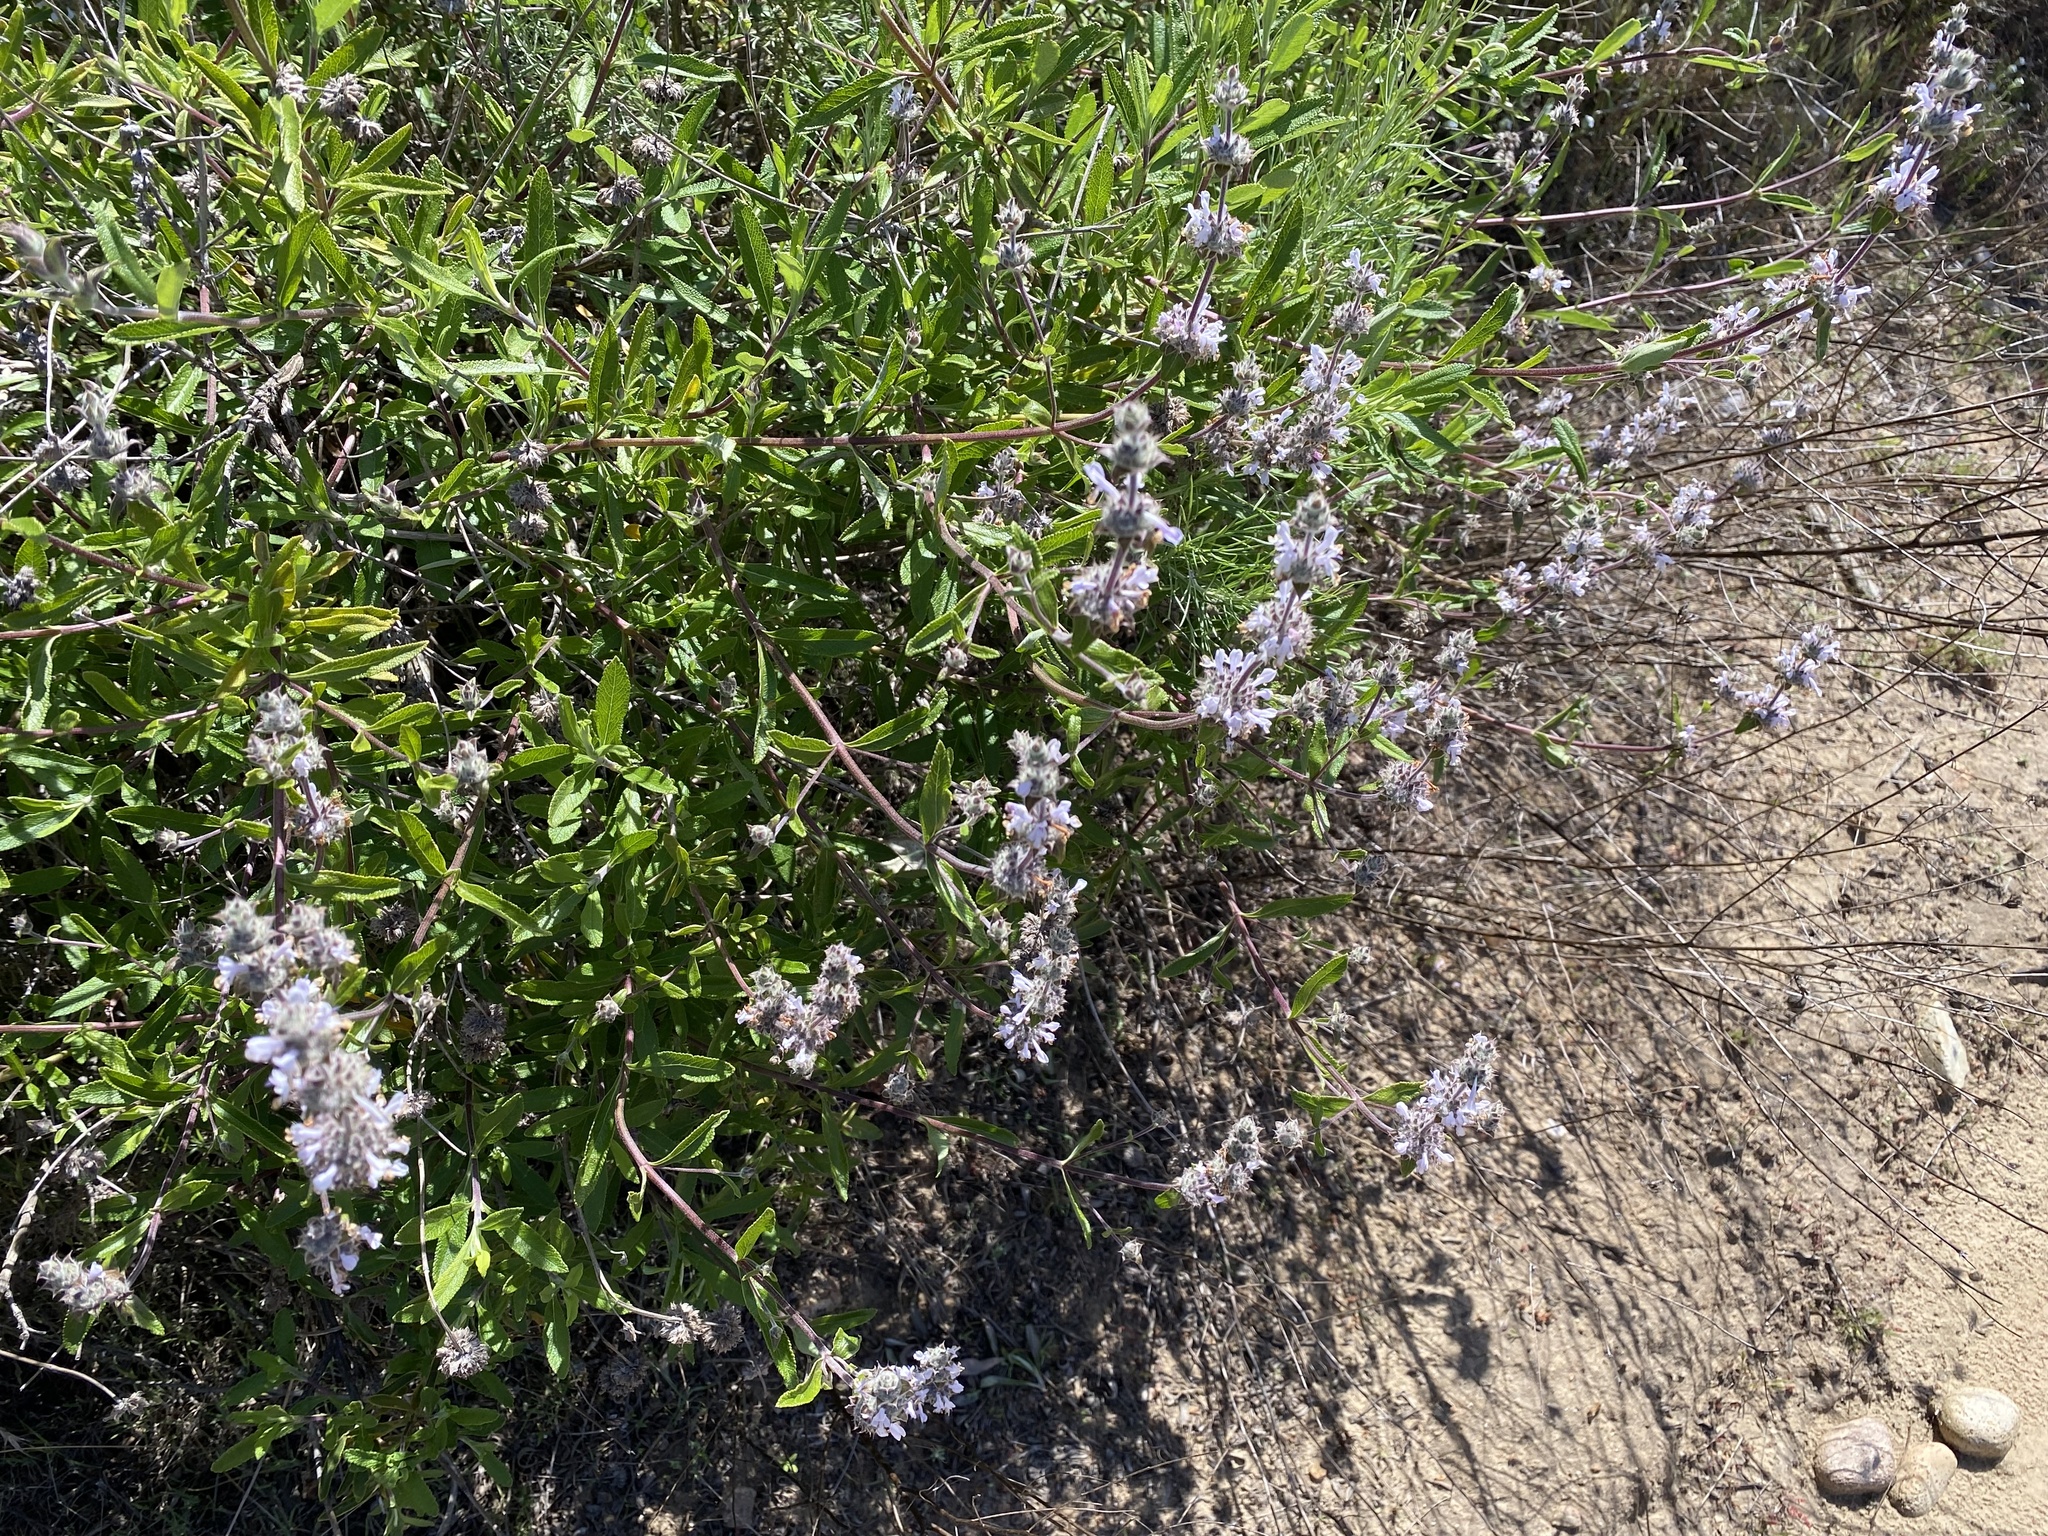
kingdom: Plantae
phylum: Tracheophyta
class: Magnoliopsida
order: Lamiales
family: Lamiaceae
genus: Salvia
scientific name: Salvia mellifera
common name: Black sage
